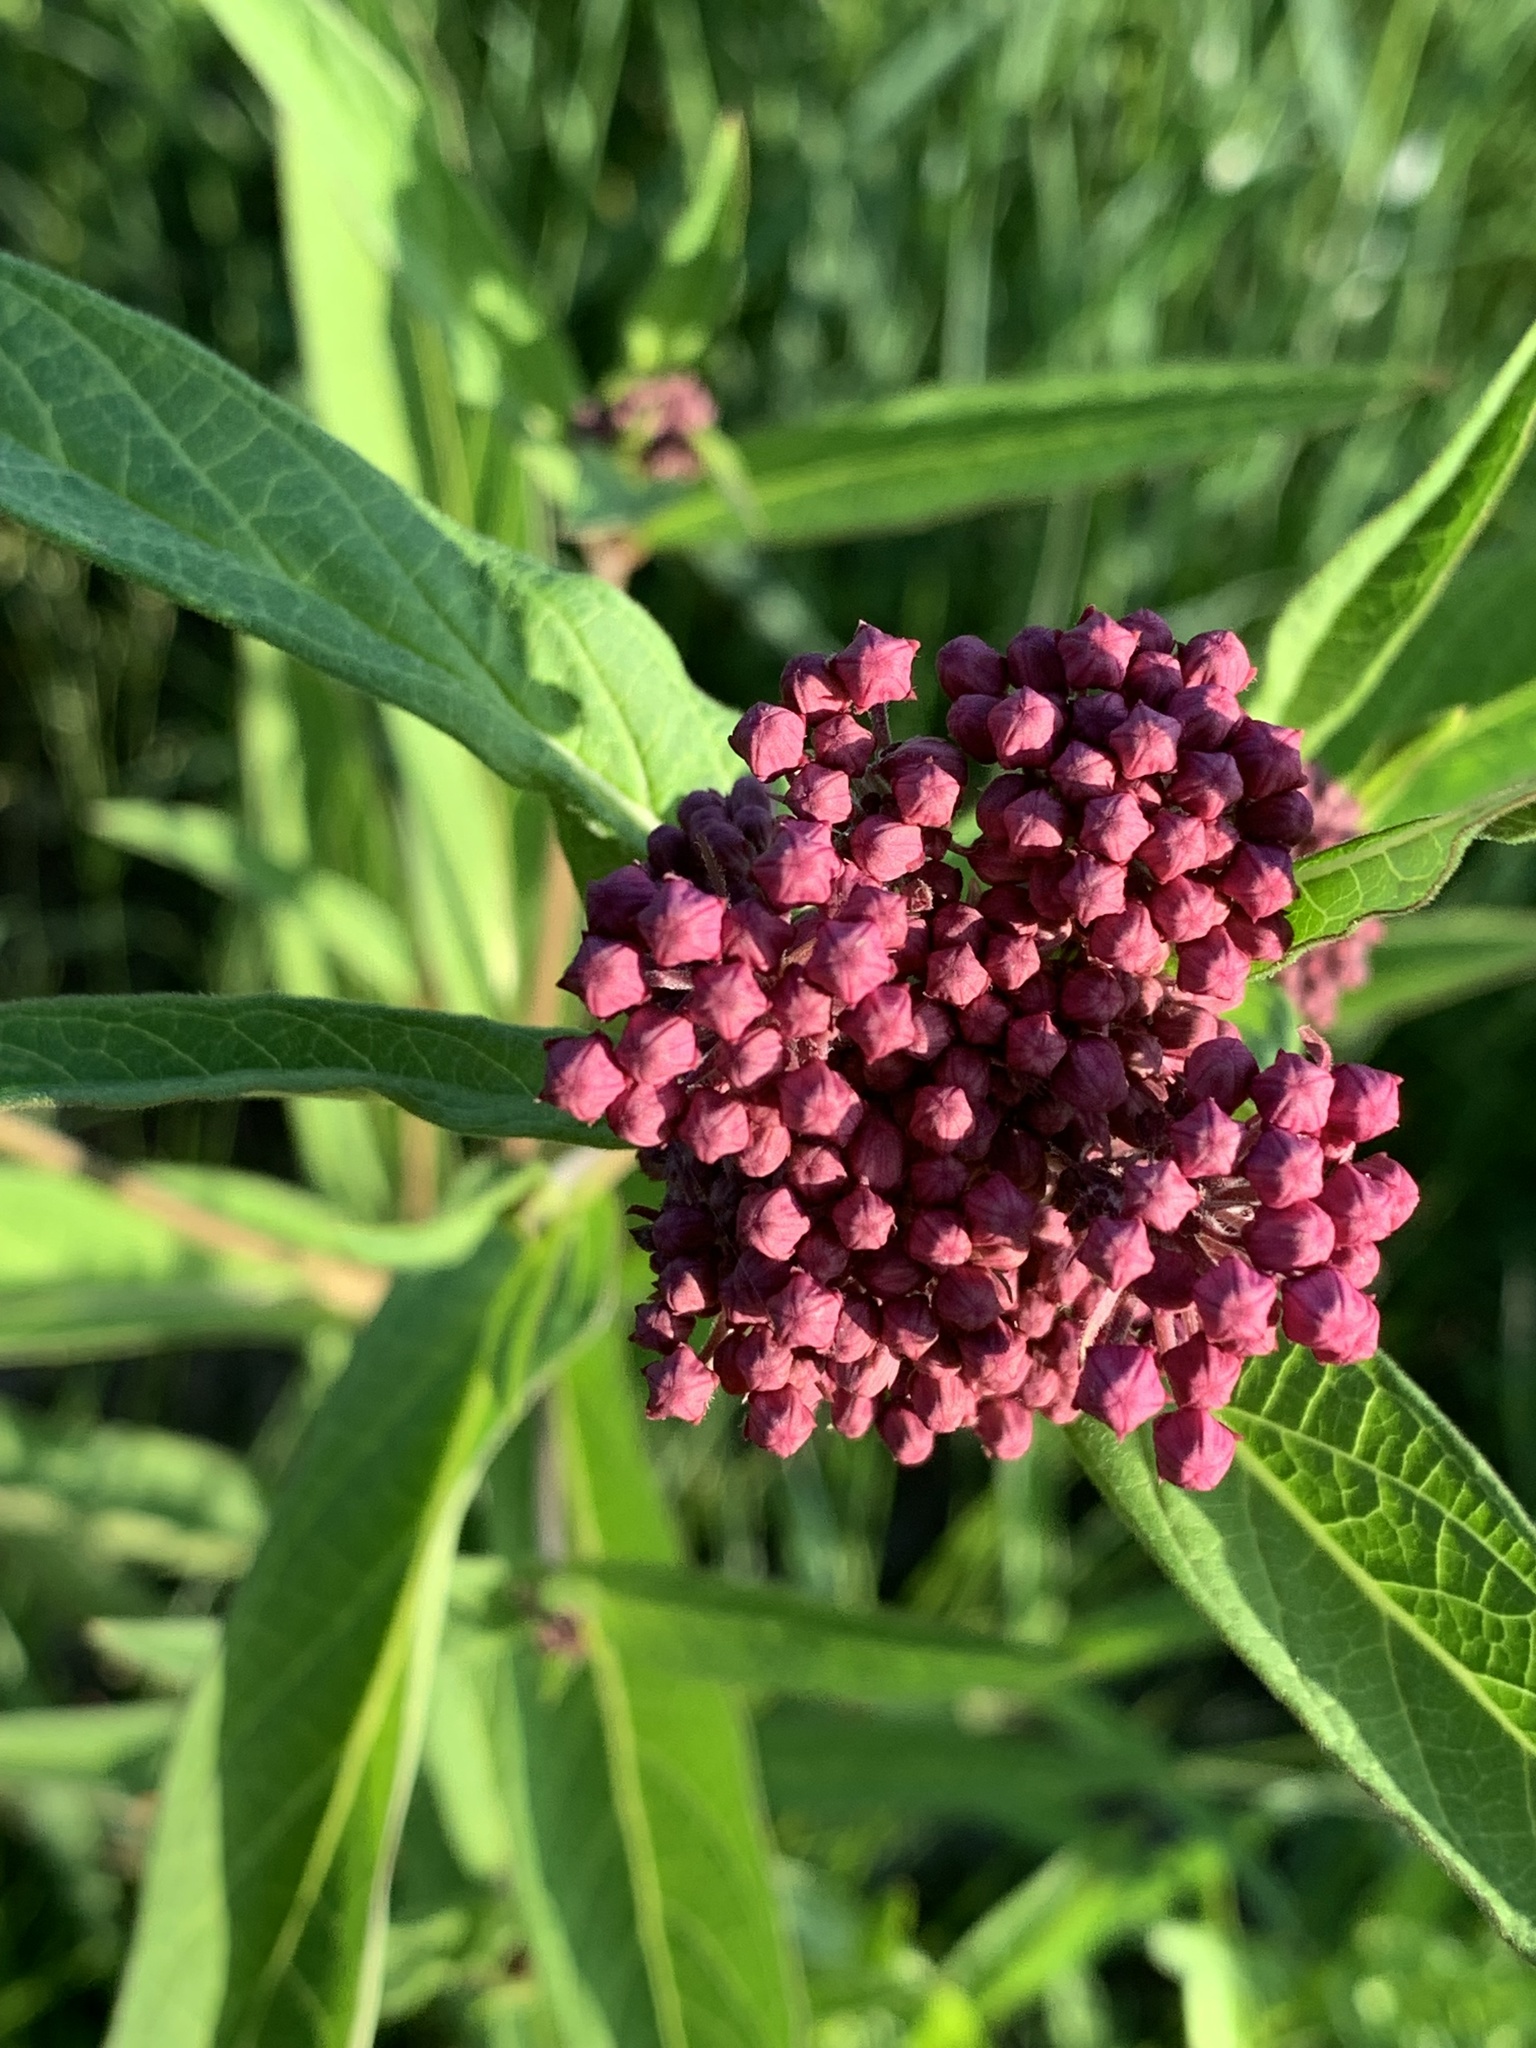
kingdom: Plantae
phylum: Tracheophyta
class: Magnoliopsida
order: Gentianales
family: Apocynaceae
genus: Asclepias
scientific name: Asclepias incarnata
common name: Swamp milkweed
